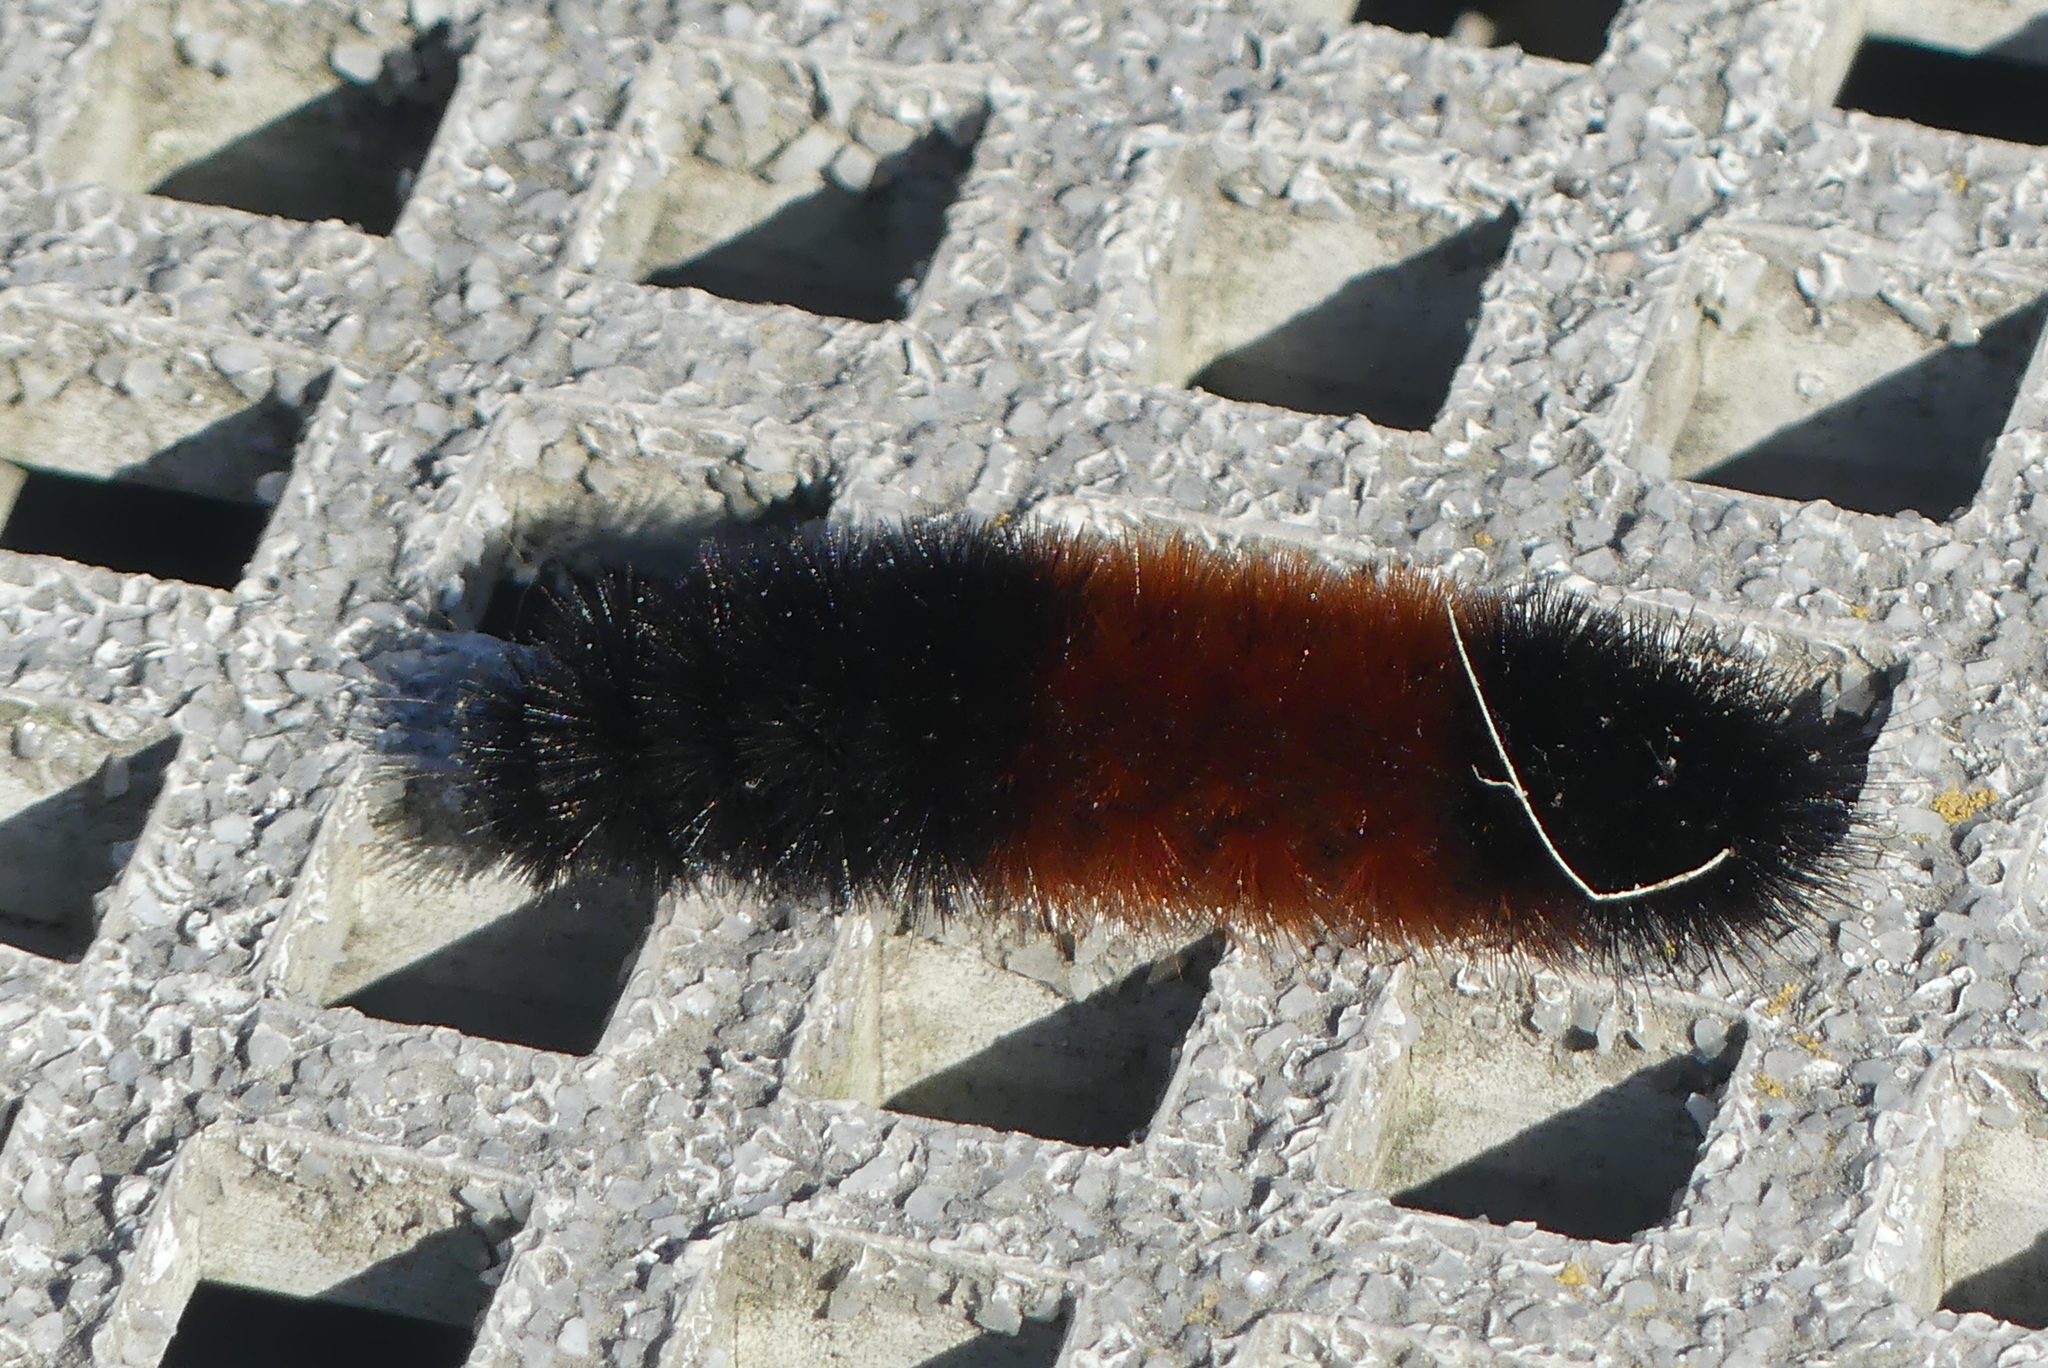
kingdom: Animalia
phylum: Arthropoda
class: Insecta
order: Lepidoptera
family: Erebidae
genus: Pyrrharctia
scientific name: Pyrrharctia isabella
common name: Isabella tiger moth
